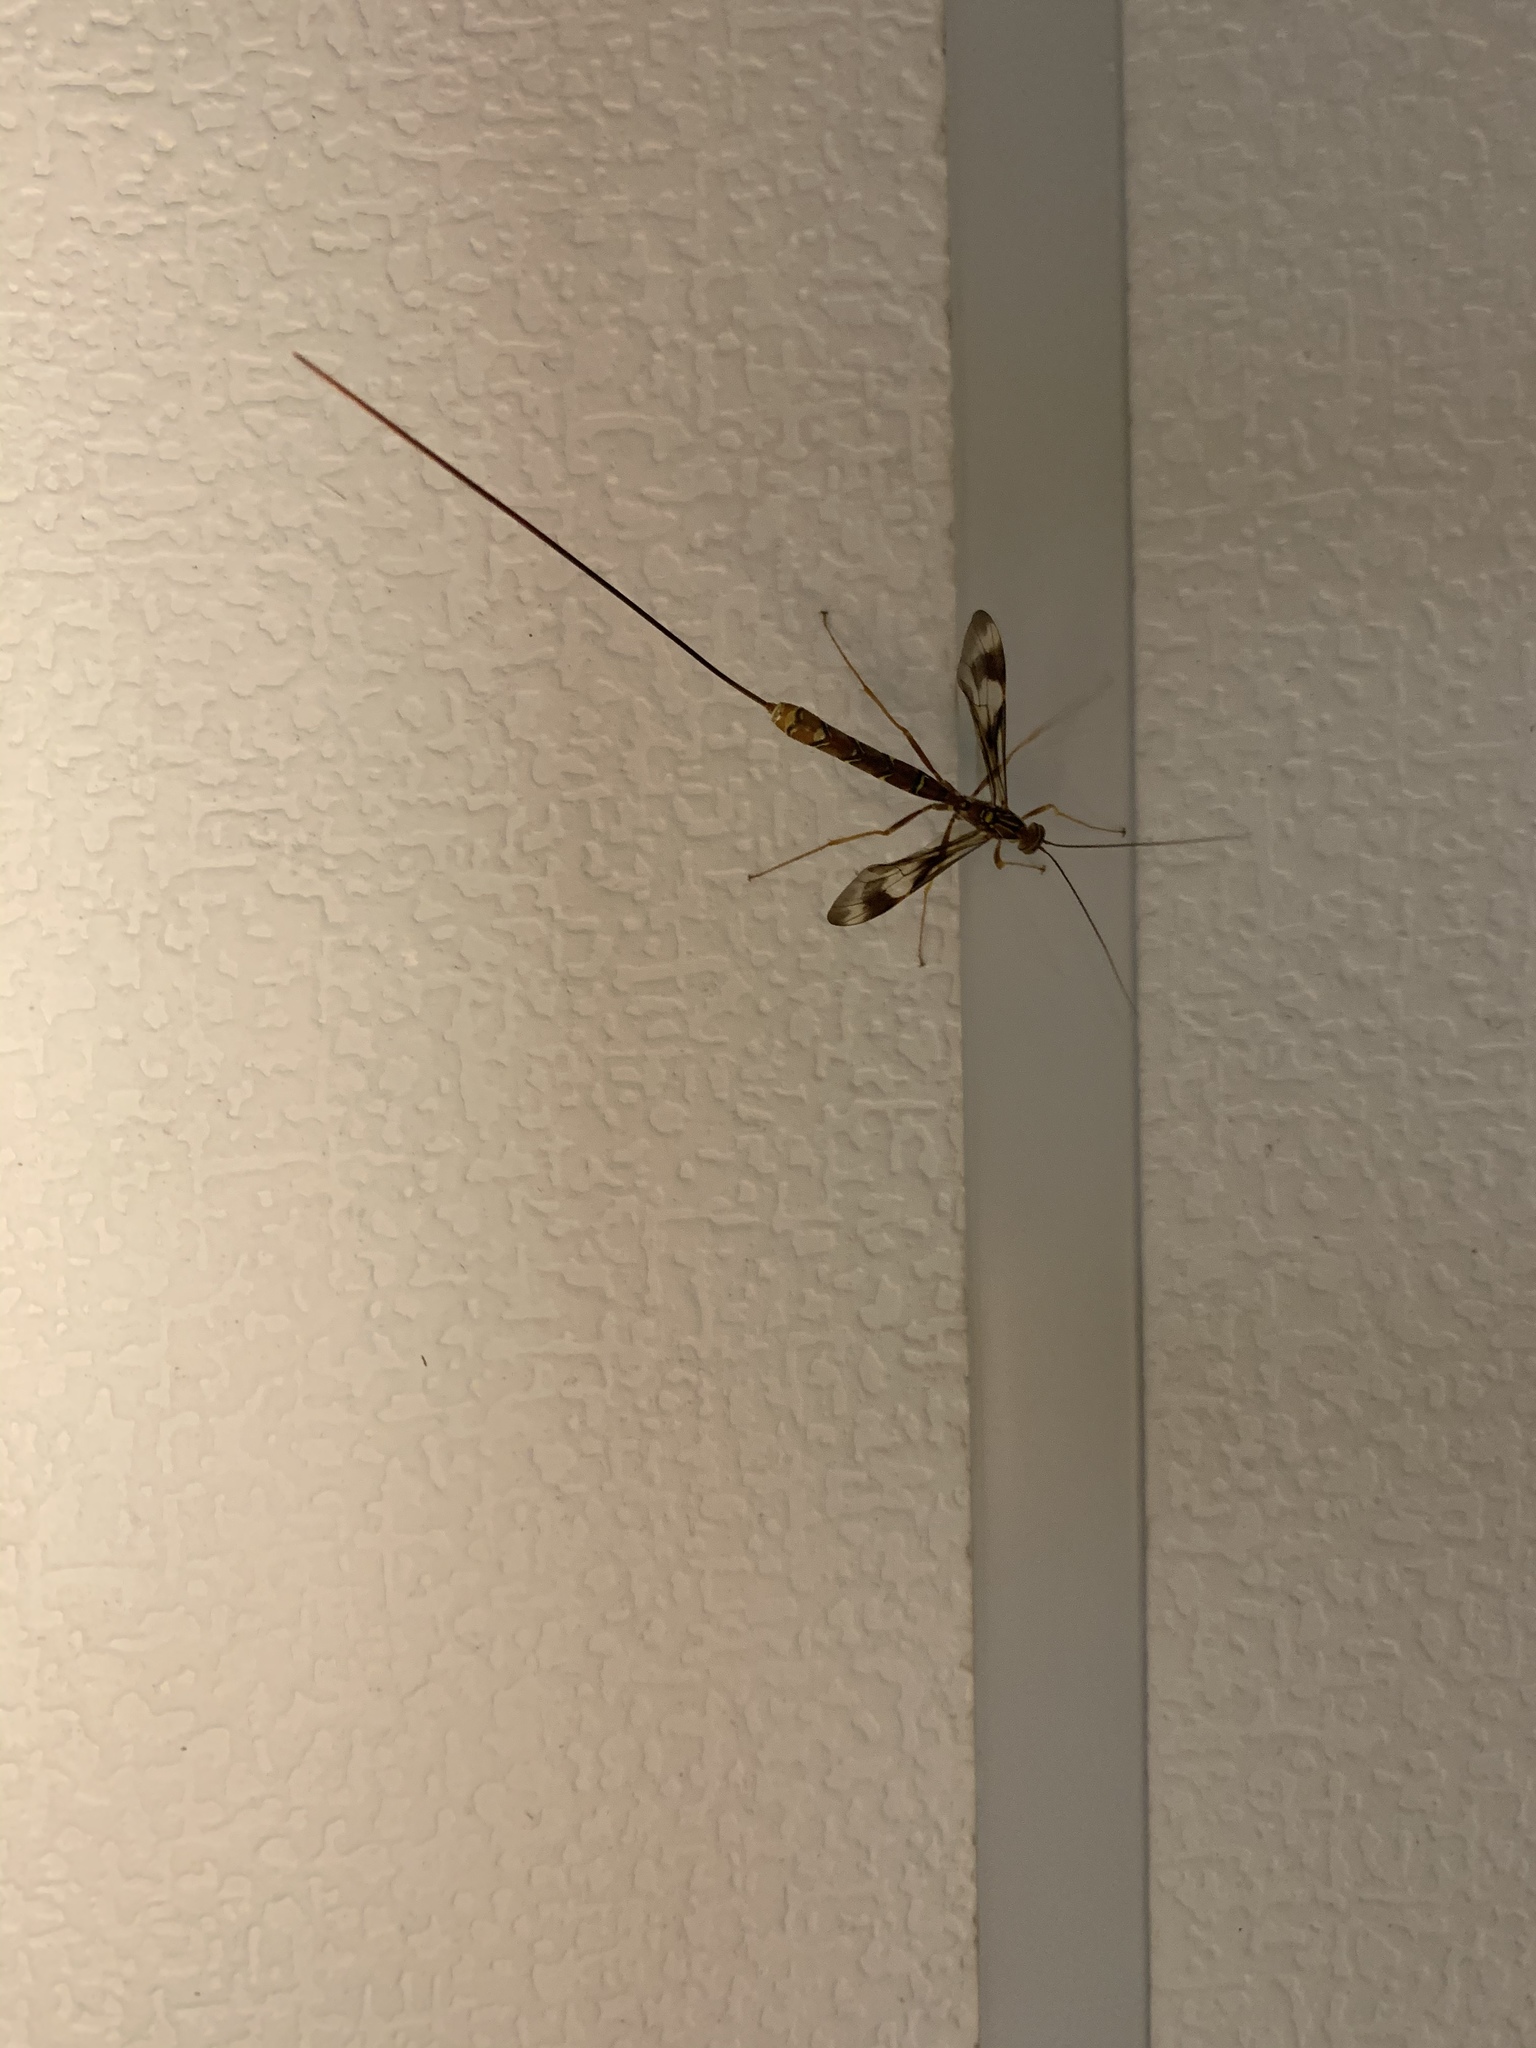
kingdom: Animalia
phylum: Arthropoda
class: Insecta
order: Hymenoptera
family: Ichneumonidae
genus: Megarhyssa
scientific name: Megarhyssa macrura
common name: Long-tailed giant ichneumonid wasp
